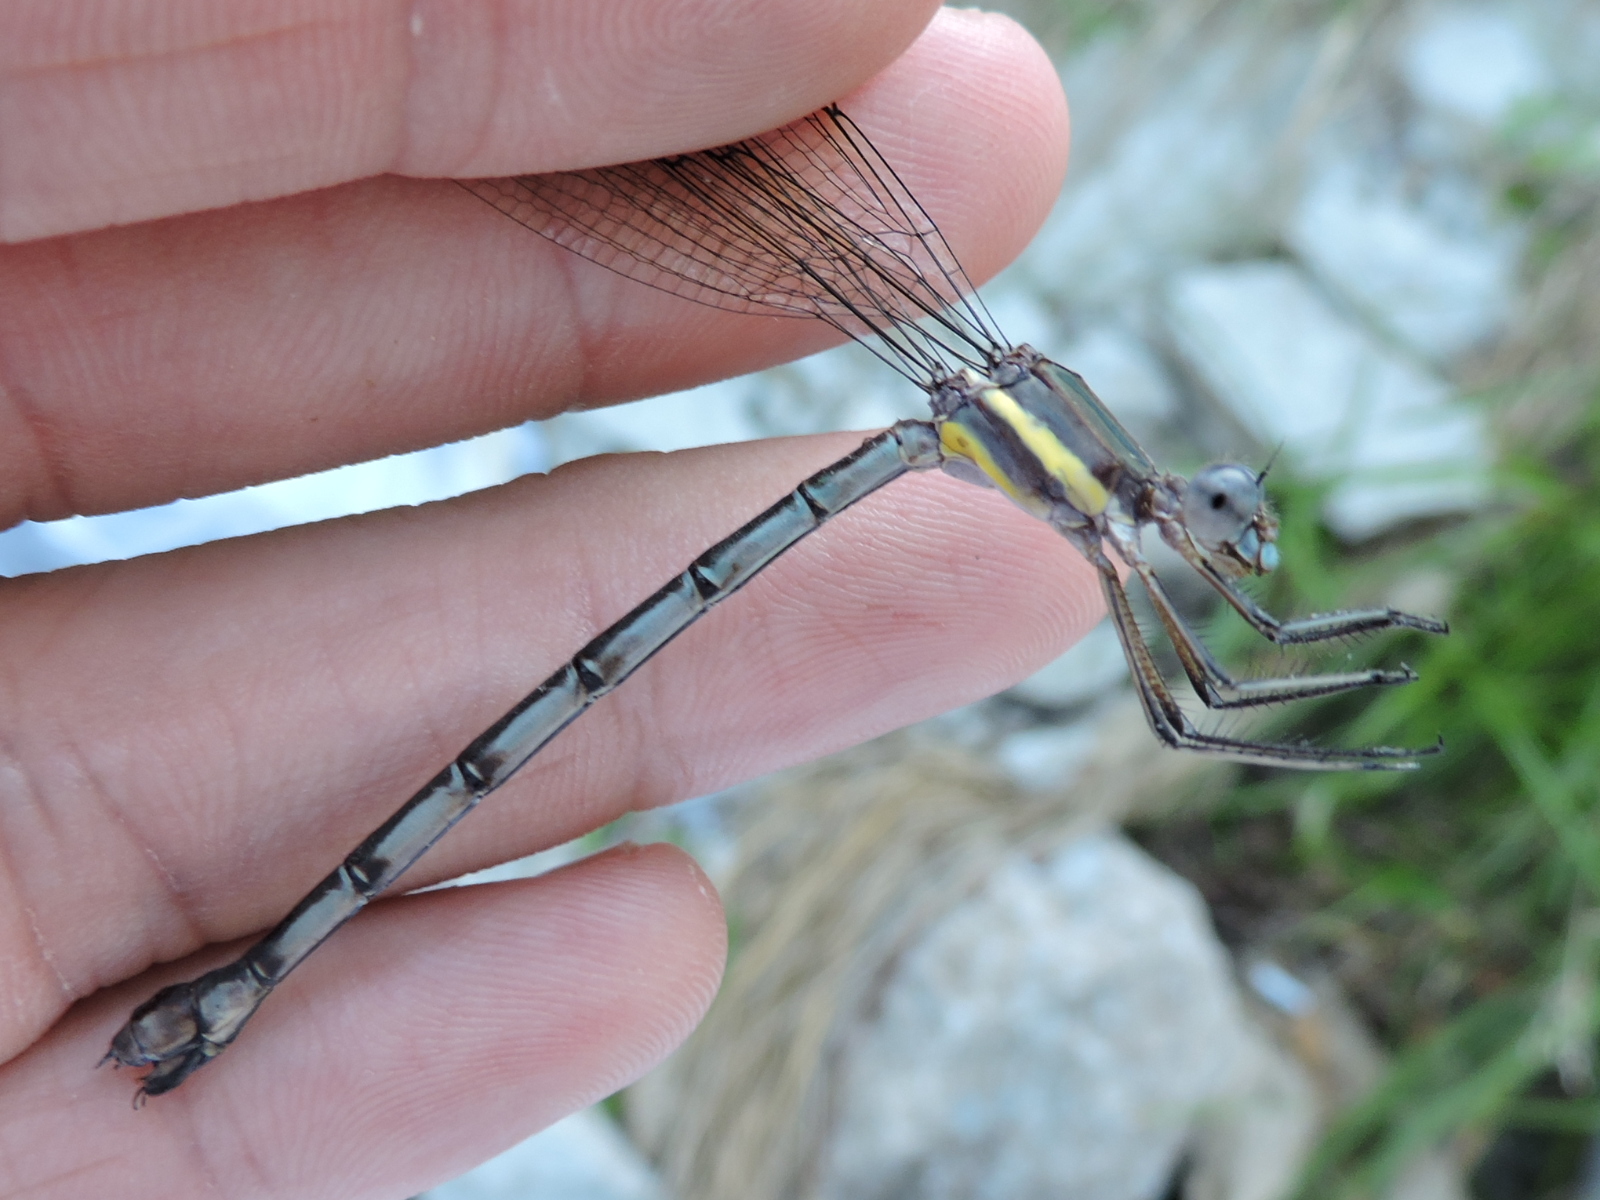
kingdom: Animalia
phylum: Arthropoda
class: Insecta
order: Odonata
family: Lestidae
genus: Archilestes
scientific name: Archilestes grandis
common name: Great spreadwing
